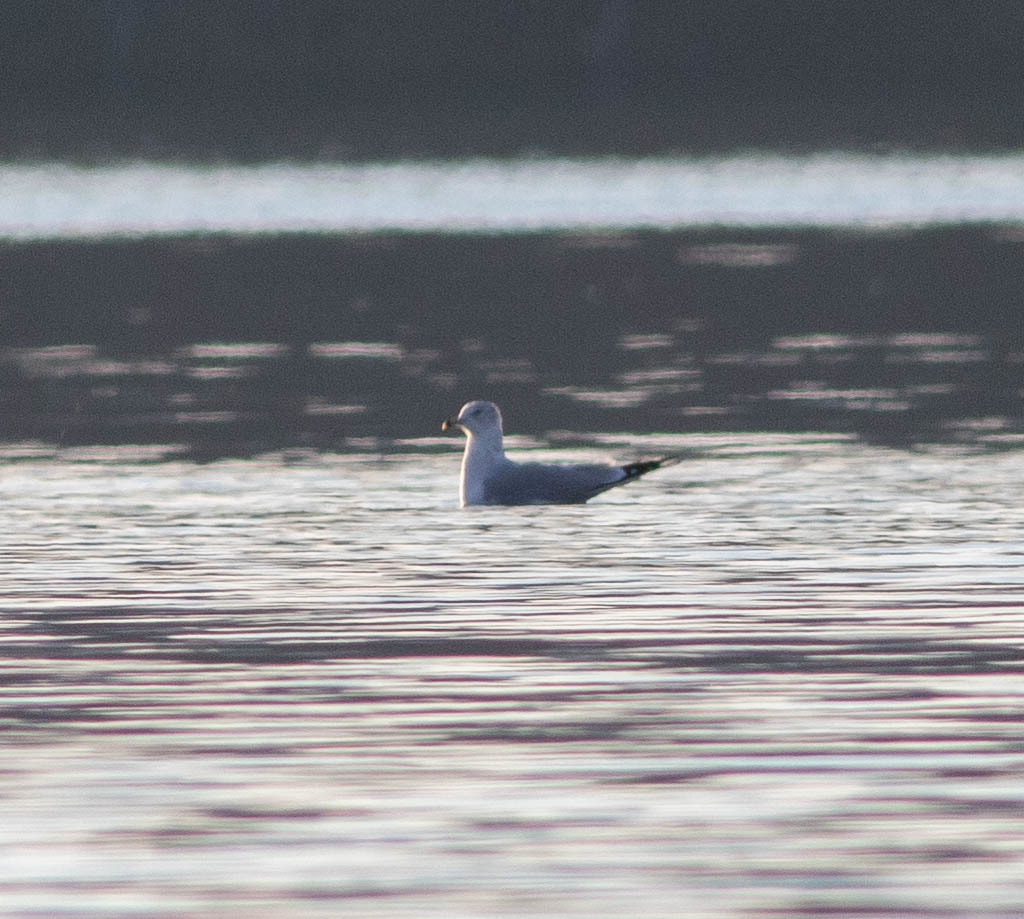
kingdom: Animalia
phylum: Chordata
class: Aves
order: Charadriiformes
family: Laridae
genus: Larus
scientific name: Larus delawarensis
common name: Ring-billed gull
